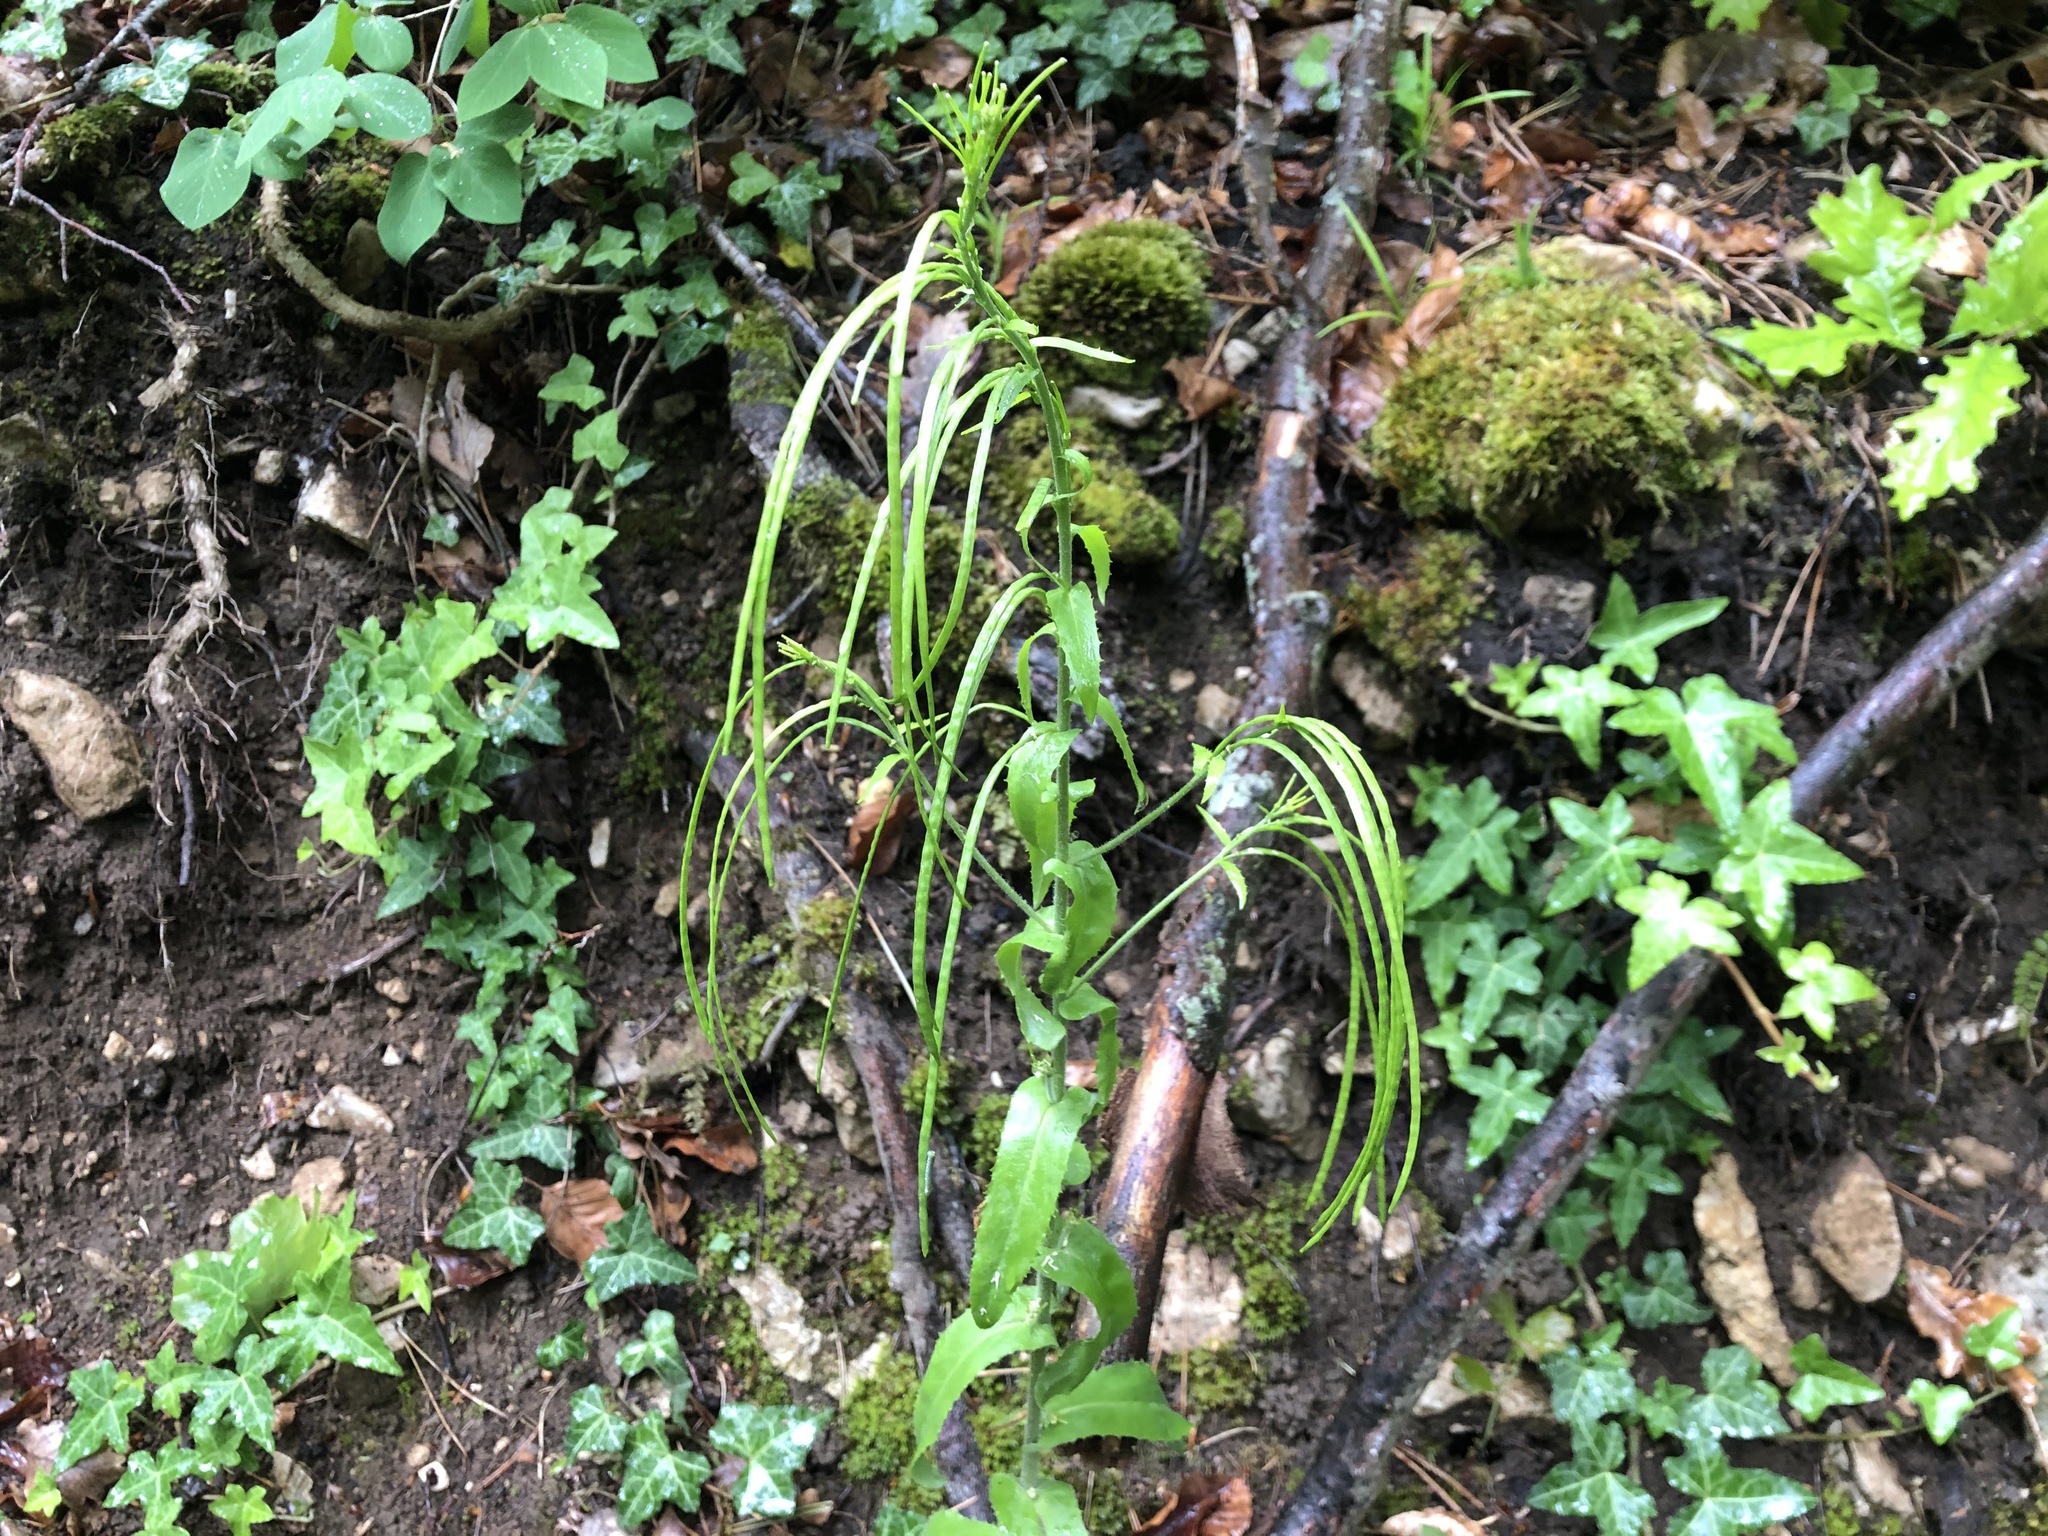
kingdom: Plantae
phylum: Tracheophyta
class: Magnoliopsida
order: Brassicales
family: Brassicaceae
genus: Pseudoturritis
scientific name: Pseudoturritis turrita
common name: Tower cress
